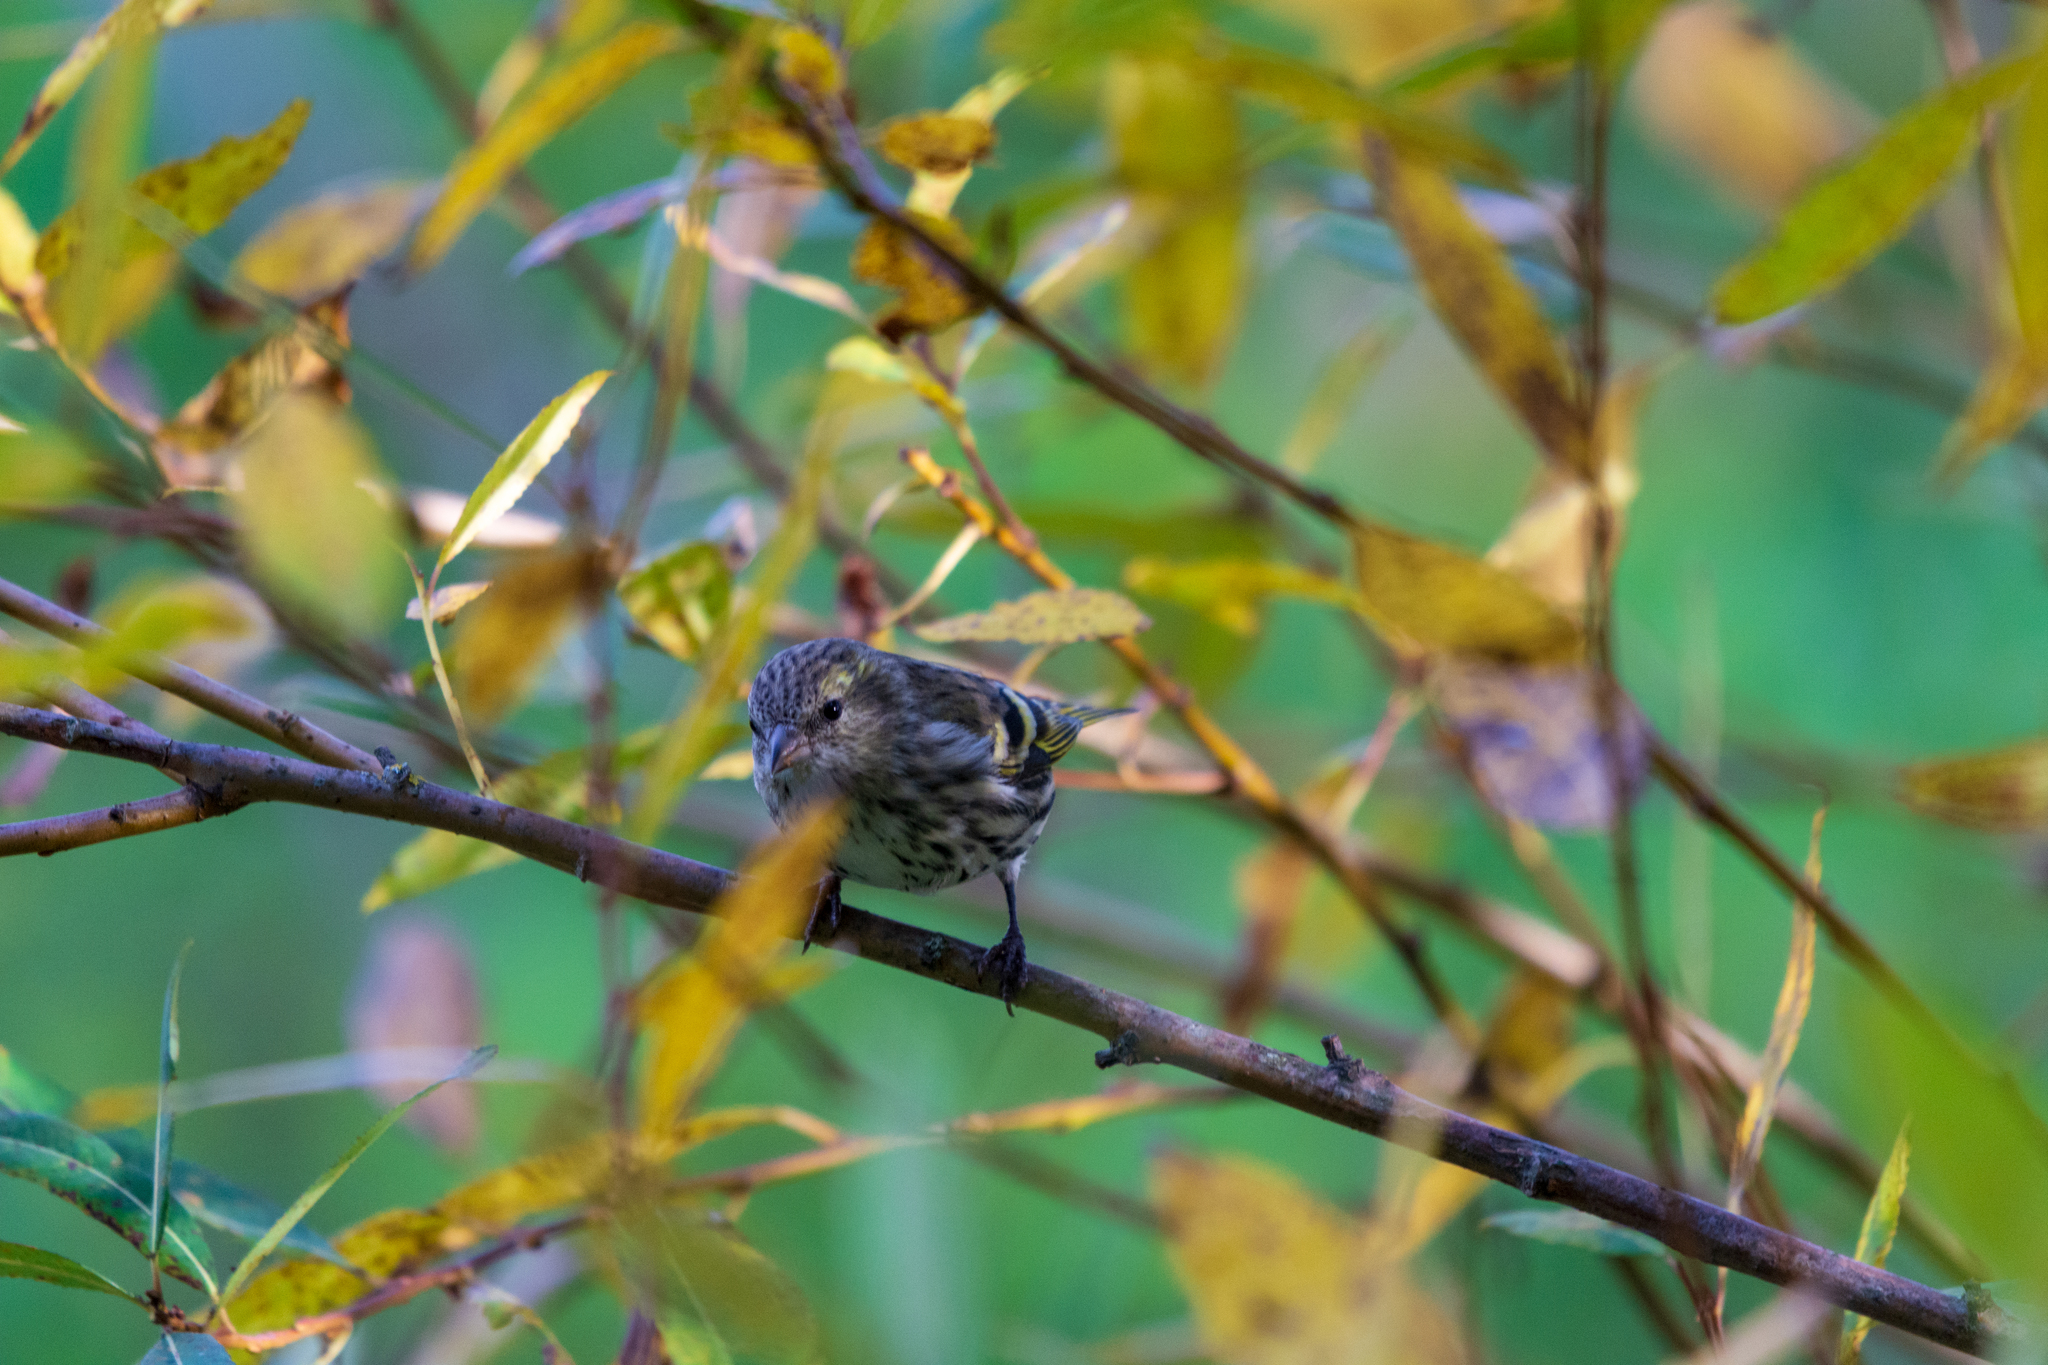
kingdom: Animalia
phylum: Chordata
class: Aves
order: Passeriformes
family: Fringillidae
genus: Spinus
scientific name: Spinus spinus
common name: Eurasian siskin
